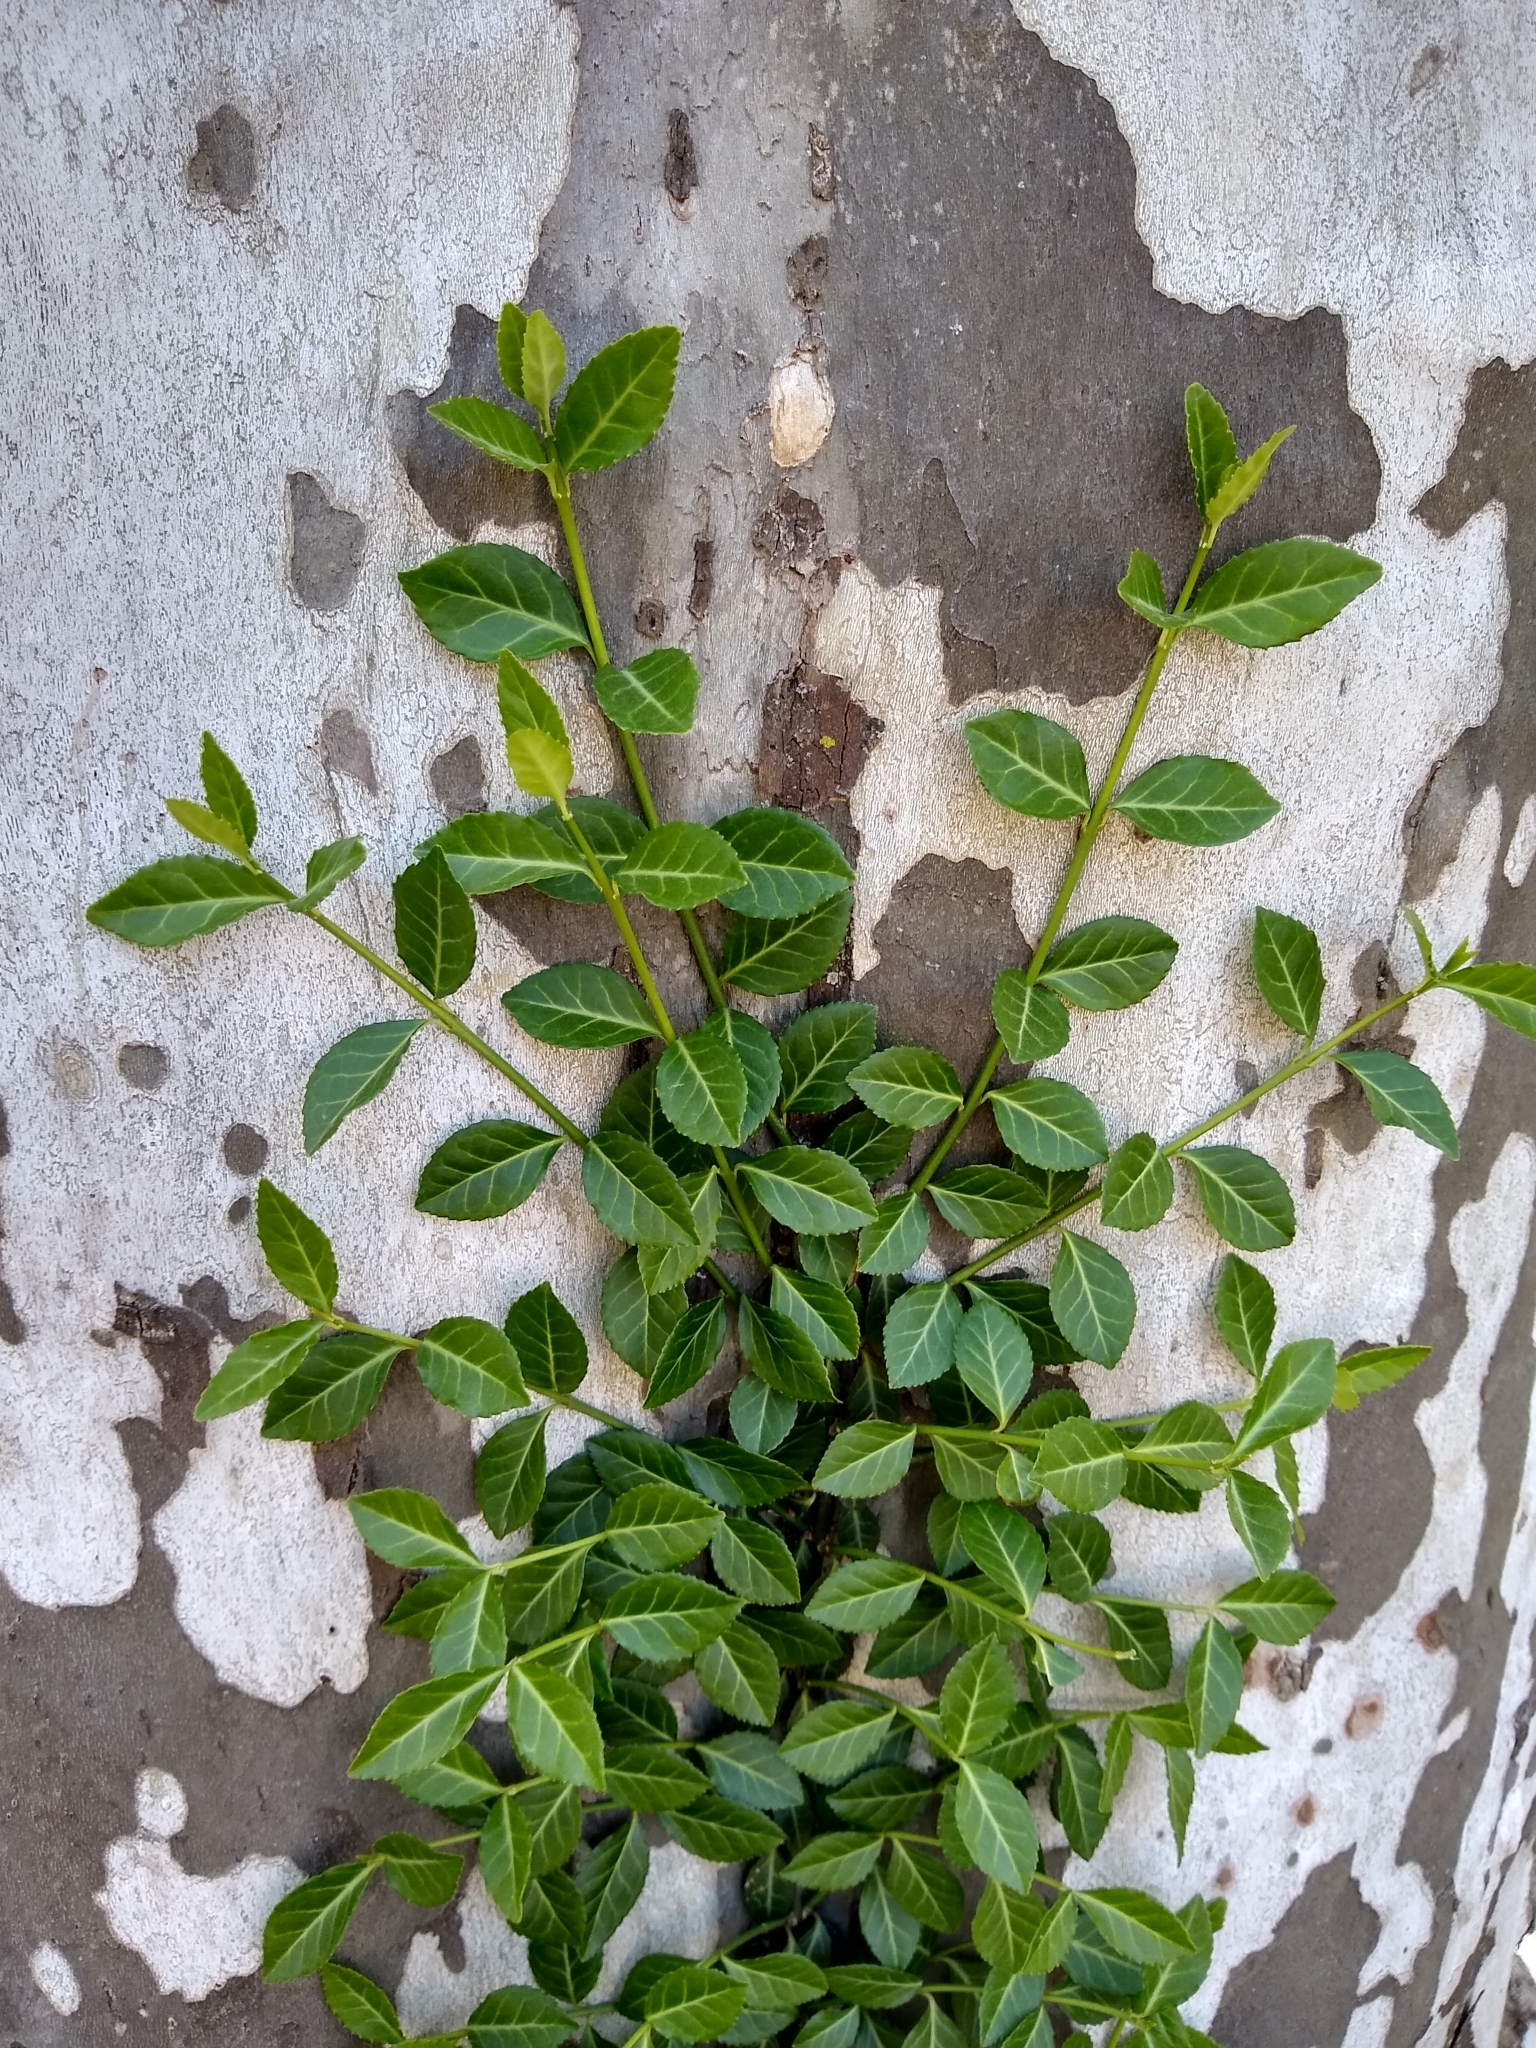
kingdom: Plantae
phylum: Tracheophyta
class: Magnoliopsida
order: Celastrales
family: Celastraceae
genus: Euonymus
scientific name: Euonymus fortunei
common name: Climbing euonymus
